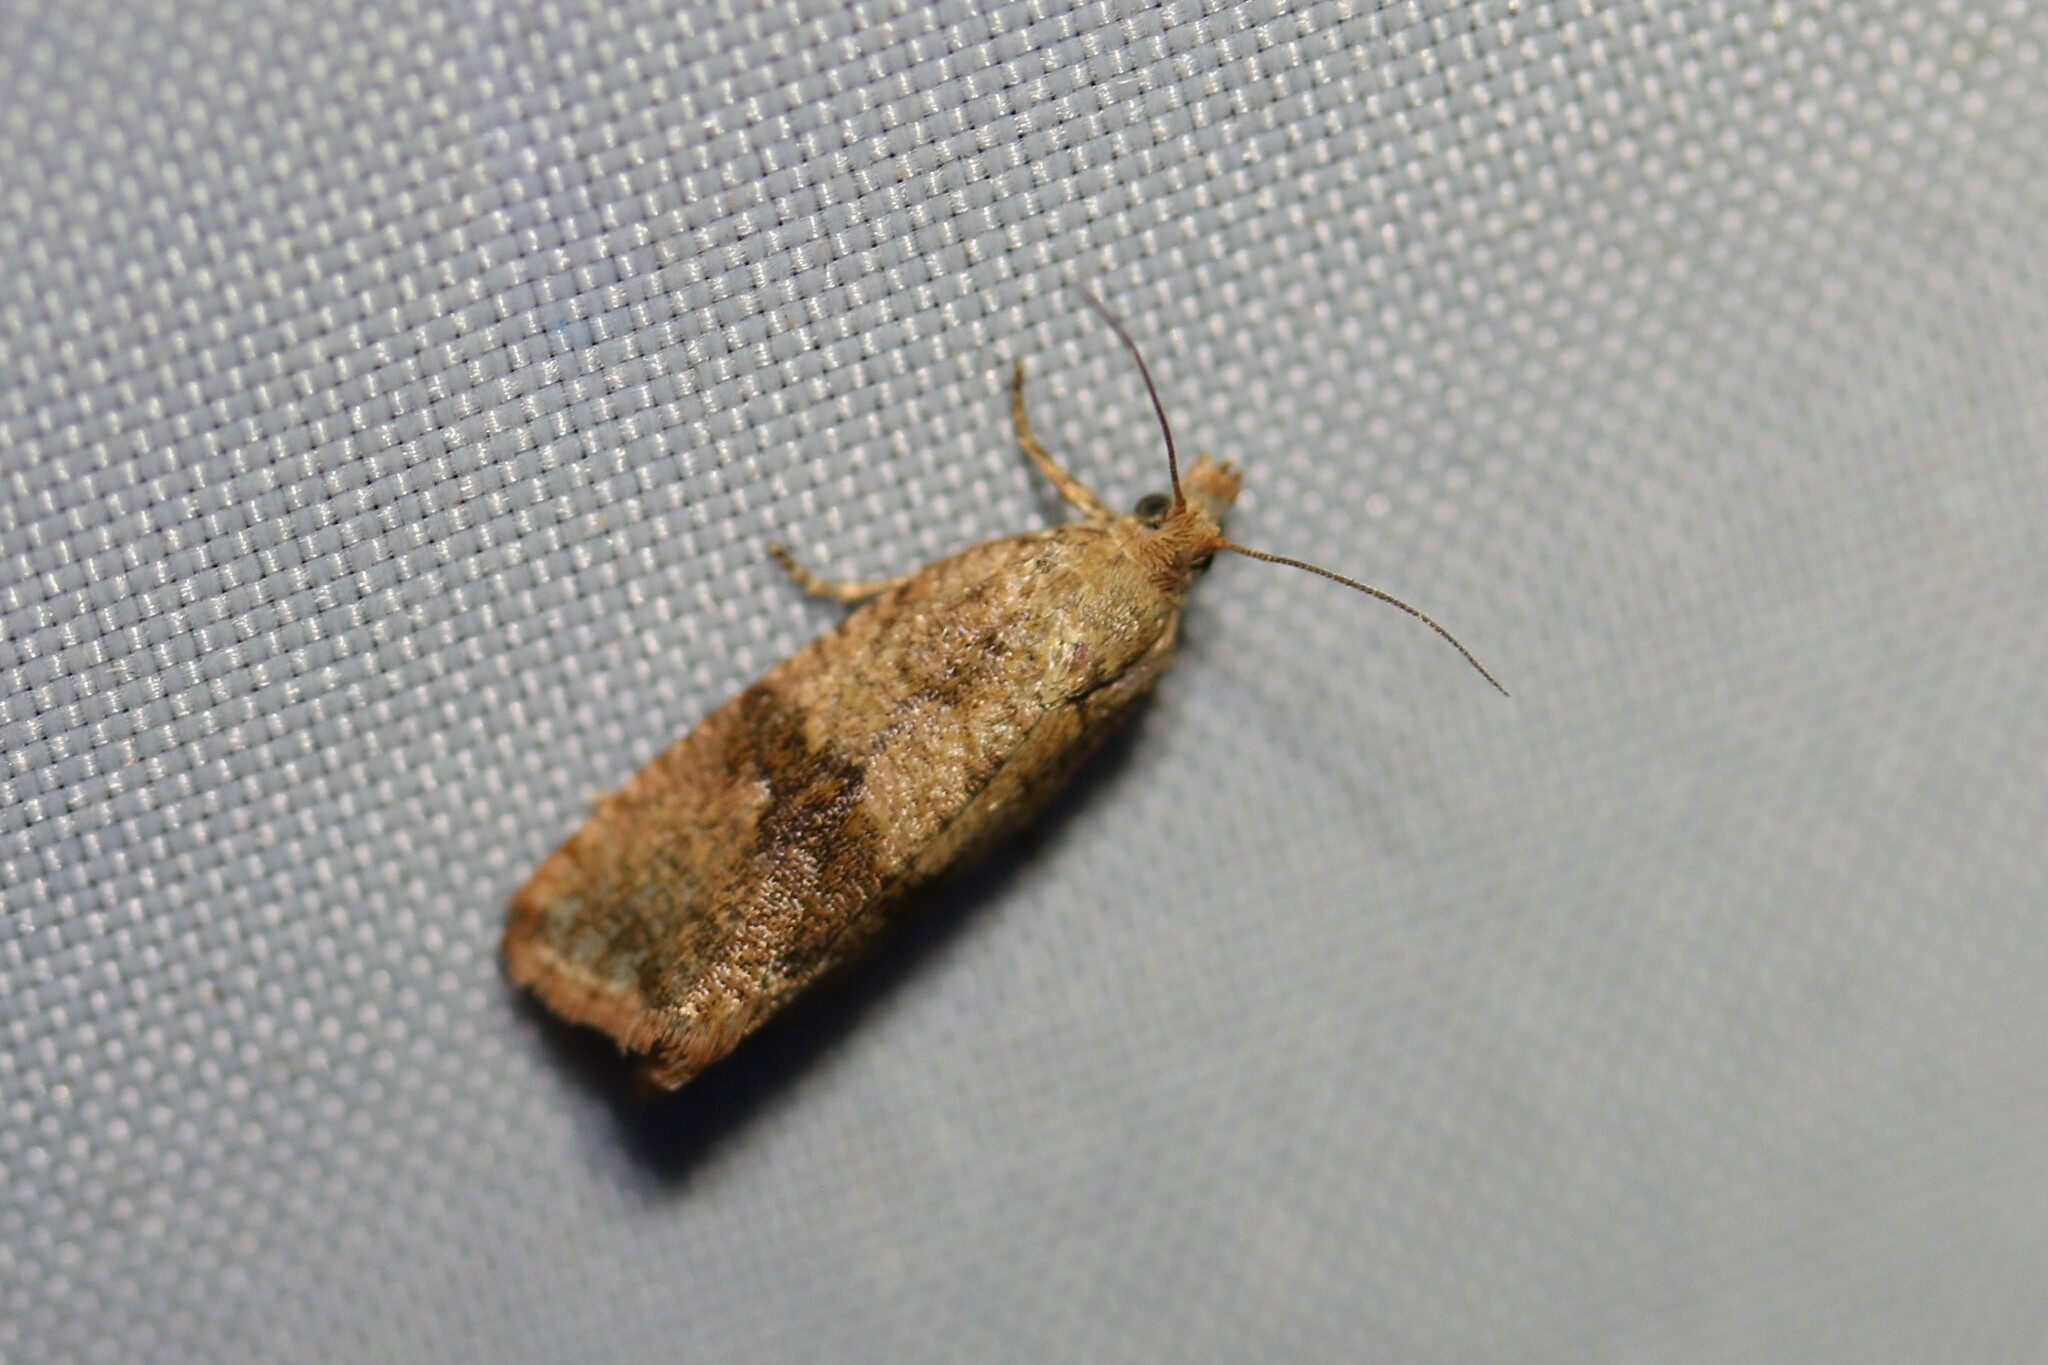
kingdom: Animalia
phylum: Arthropoda
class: Insecta
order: Lepidoptera
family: Tortricidae
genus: Celypha
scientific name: Celypha striana
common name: Barred marble
